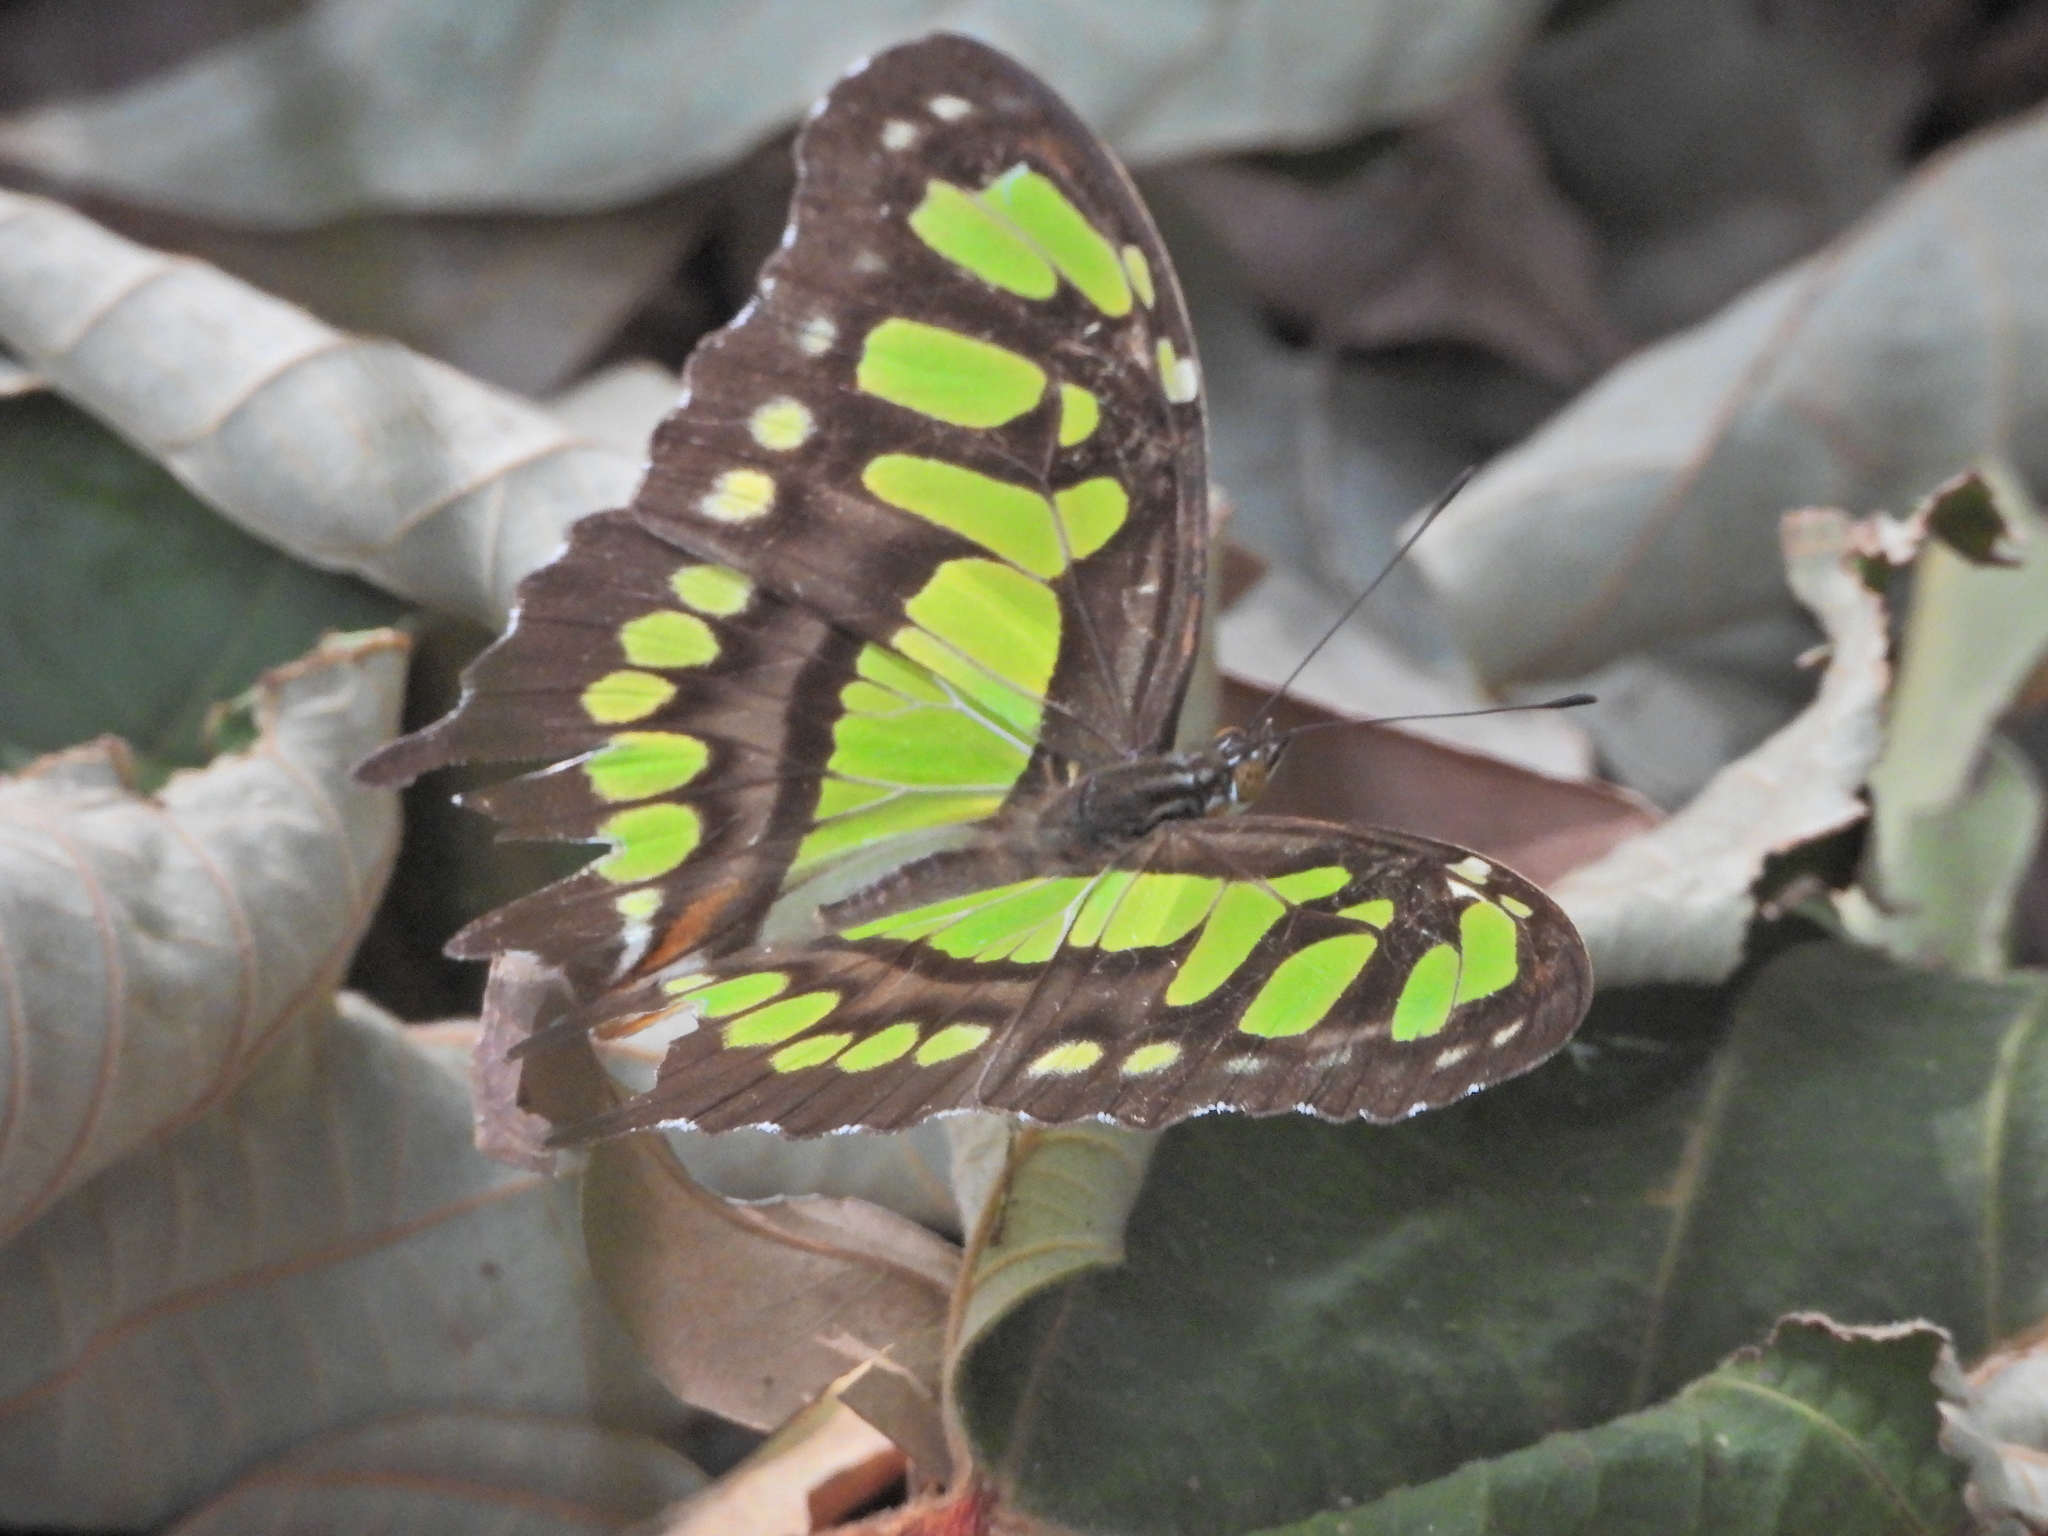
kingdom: Animalia
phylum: Arthropoda
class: Insecta
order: Lepidoptera
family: Nymphalidae
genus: Siproeta
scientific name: Siproeta stelenes
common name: Malachite
